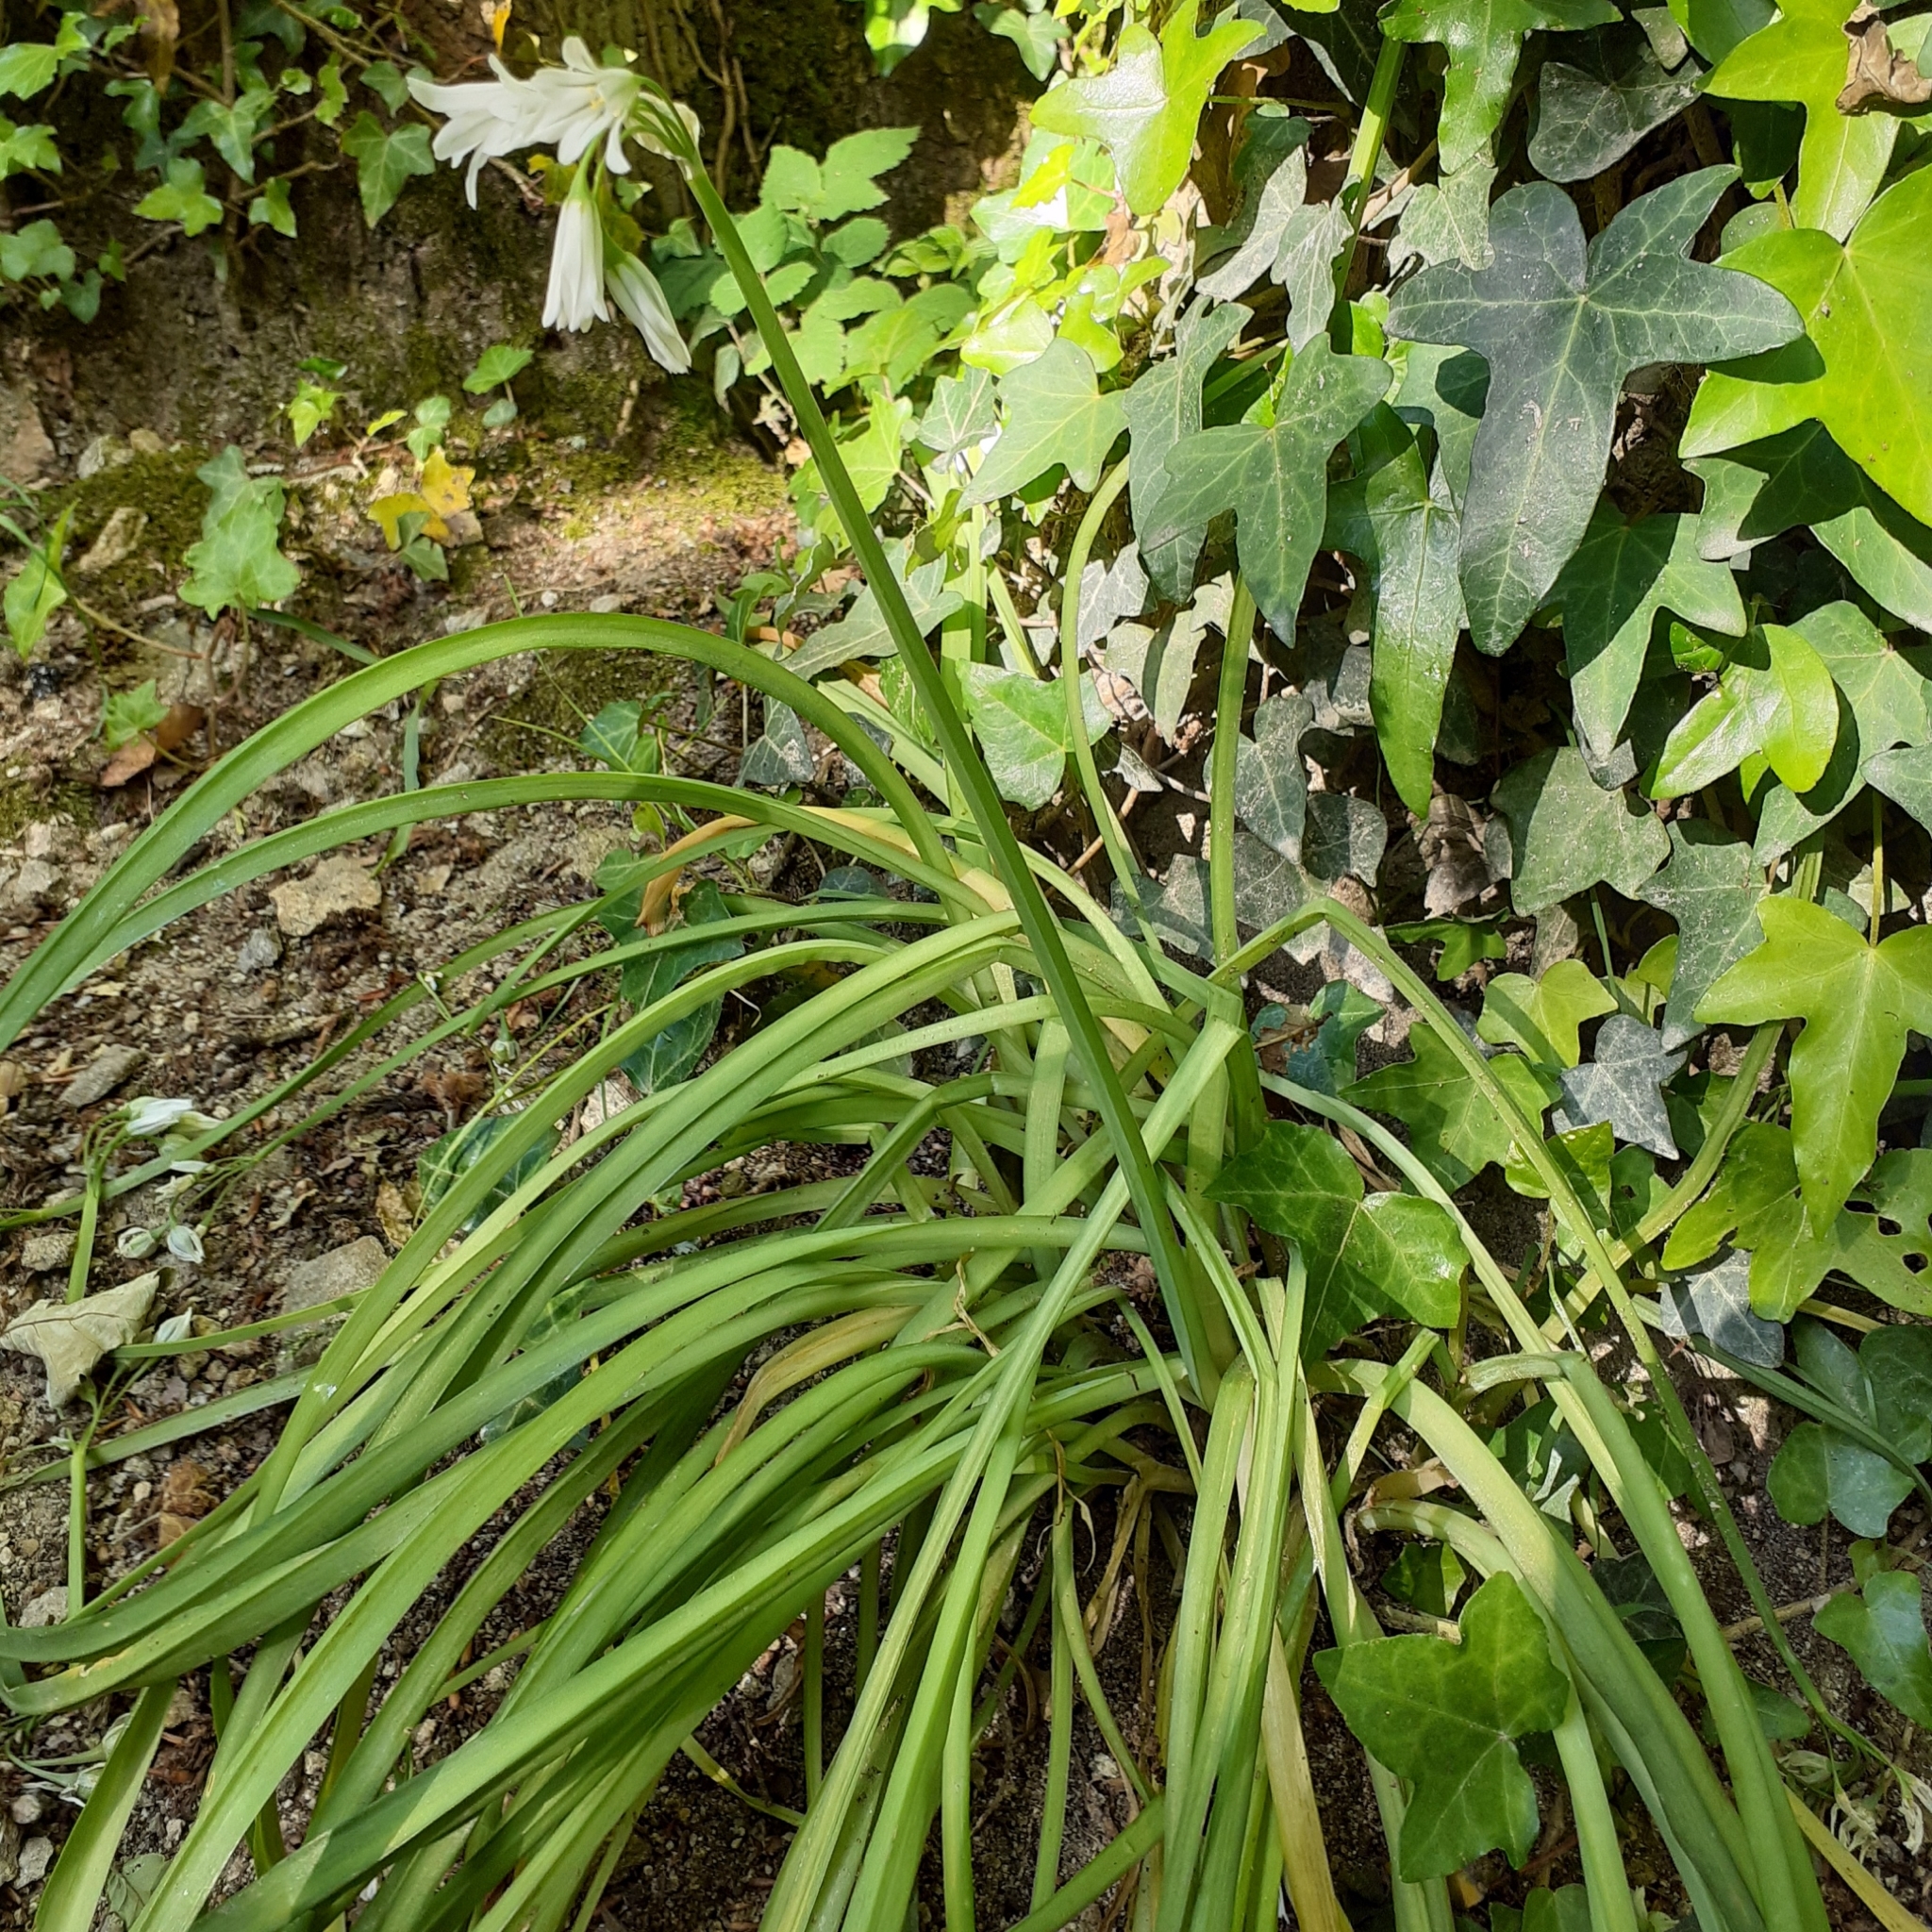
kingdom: Plantae
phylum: Tracheophyta
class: Liliopsida
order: Asparagales
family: Amaryllidaceae
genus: Allium
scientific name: Allium triquetrum
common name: Three-cornered garlic
